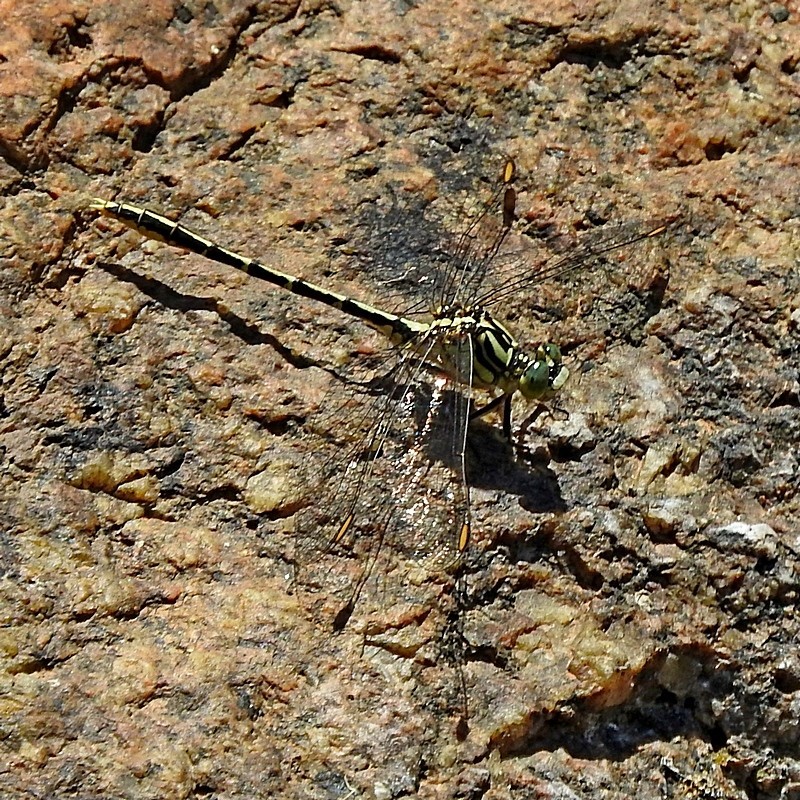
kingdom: Animalia
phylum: Arthropoda
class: Insecta
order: Odonata
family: Gomphidae
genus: Austrogomphus
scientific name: Austrogomphus guerini
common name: Yellow-striped hunter
